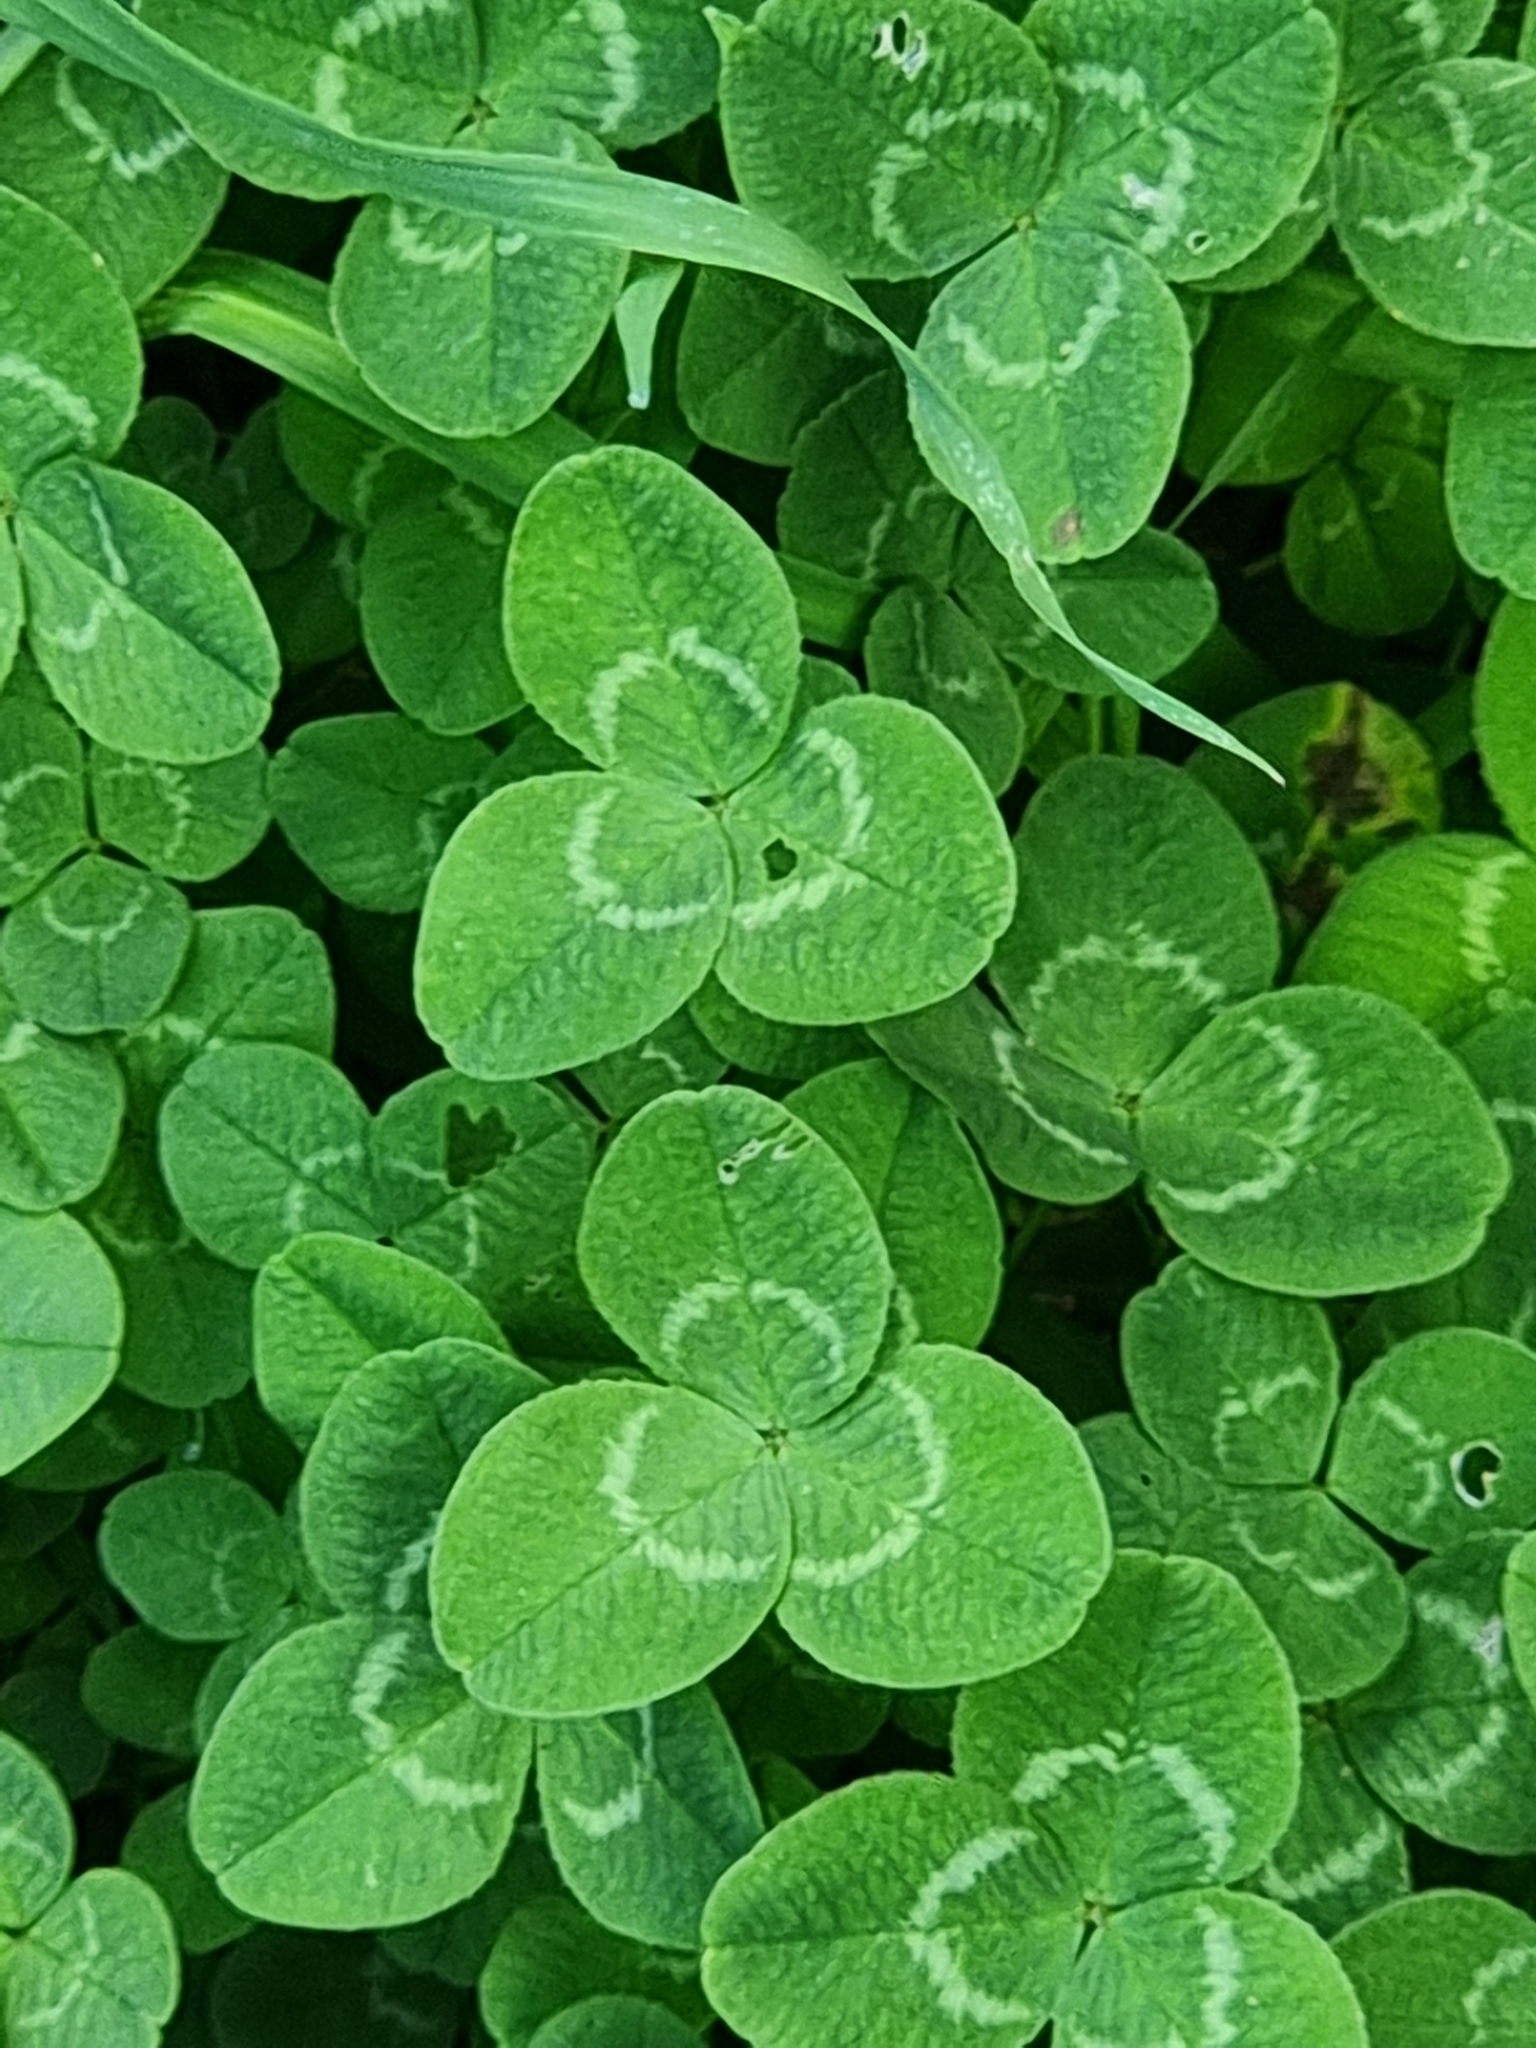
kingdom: Plantae
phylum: Tracheophyta
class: Magnoliopsida
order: Fabales
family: Fabaceae
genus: Trifolium
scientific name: Trifolium repens
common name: White clover
